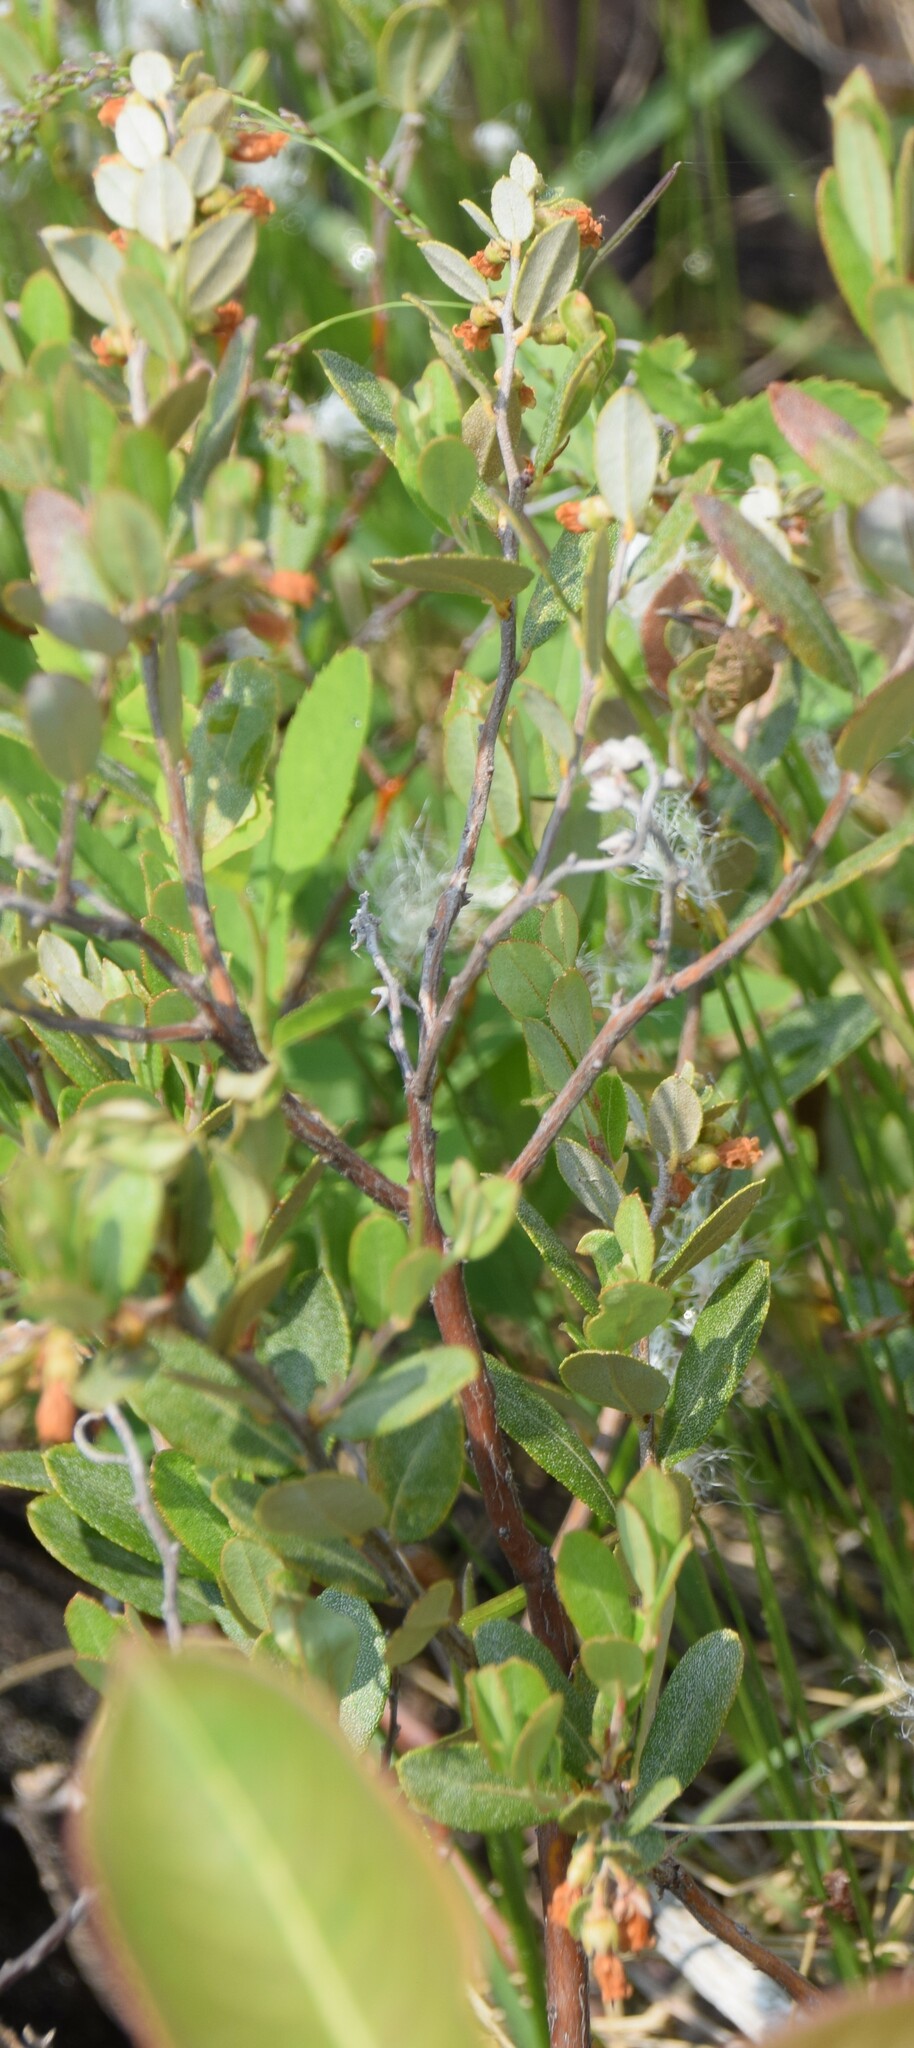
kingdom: Plantae
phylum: Tracheophyta
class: Magnoliopsida
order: Ericales
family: Ericaceae
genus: Chamaedaphne
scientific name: Chamaedaphne calyculata
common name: Leatherleaf
